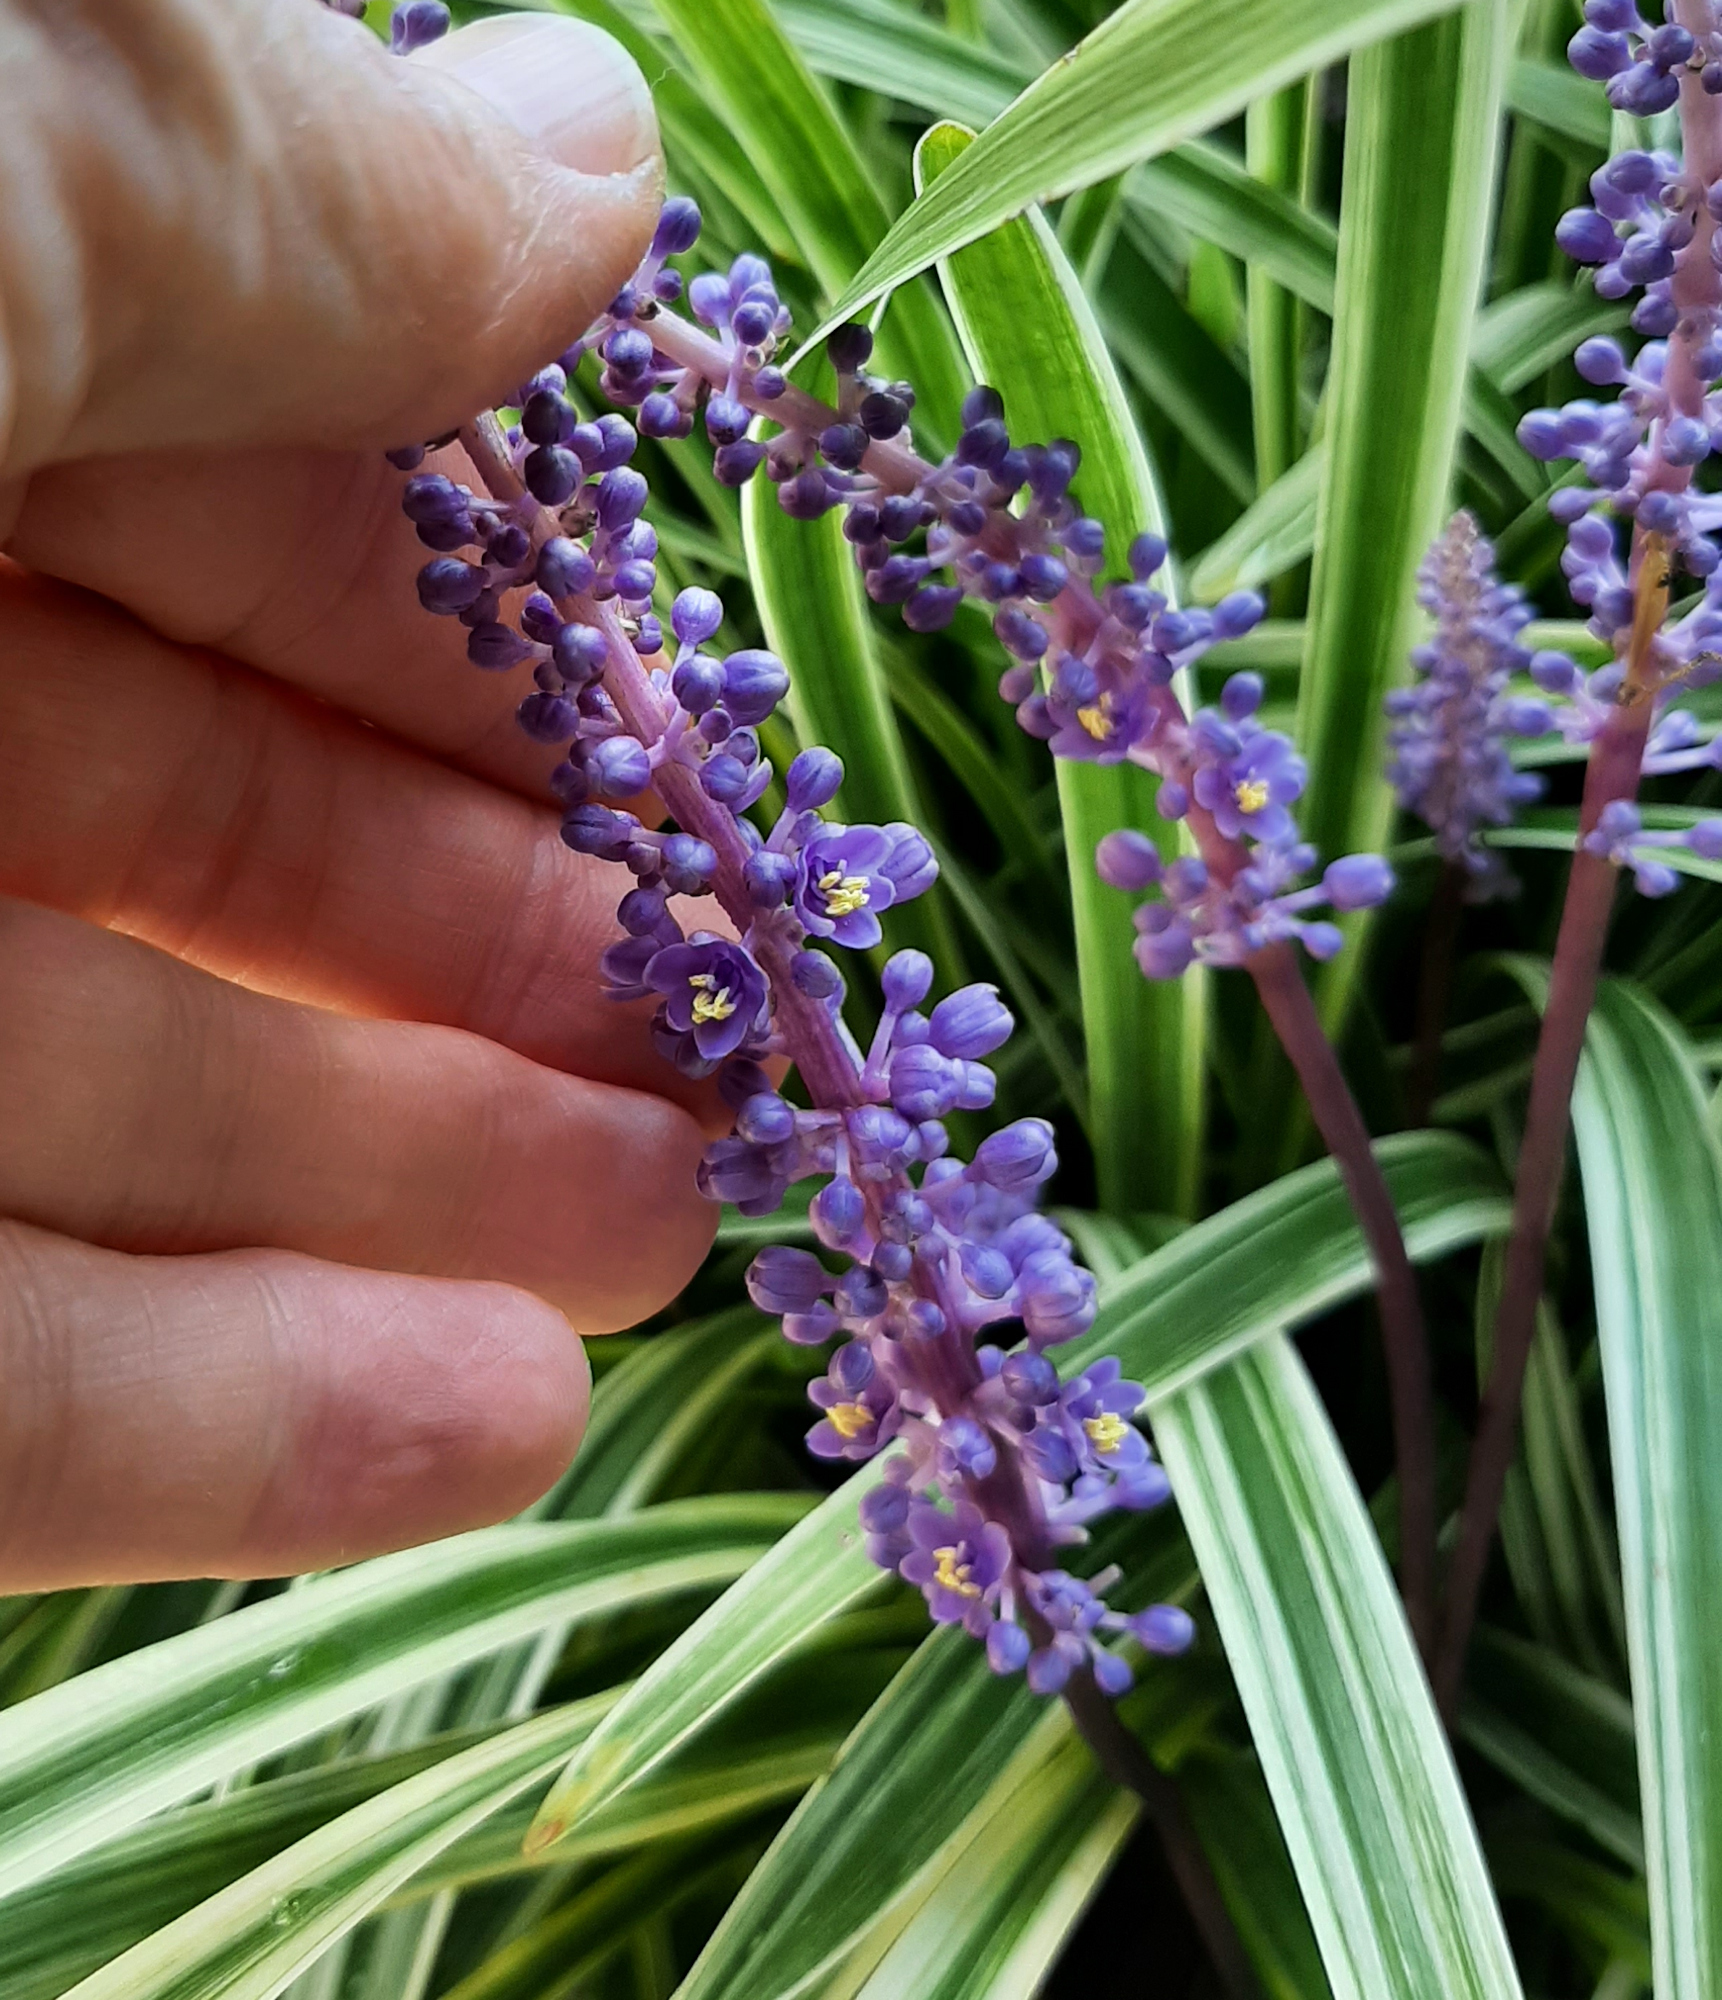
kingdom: Plantae
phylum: Tracheophyta
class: Liliopsida
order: Asparagales
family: Asparagaceae
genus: Liriope
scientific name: Liriope muscari
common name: Big blue lilyturf
